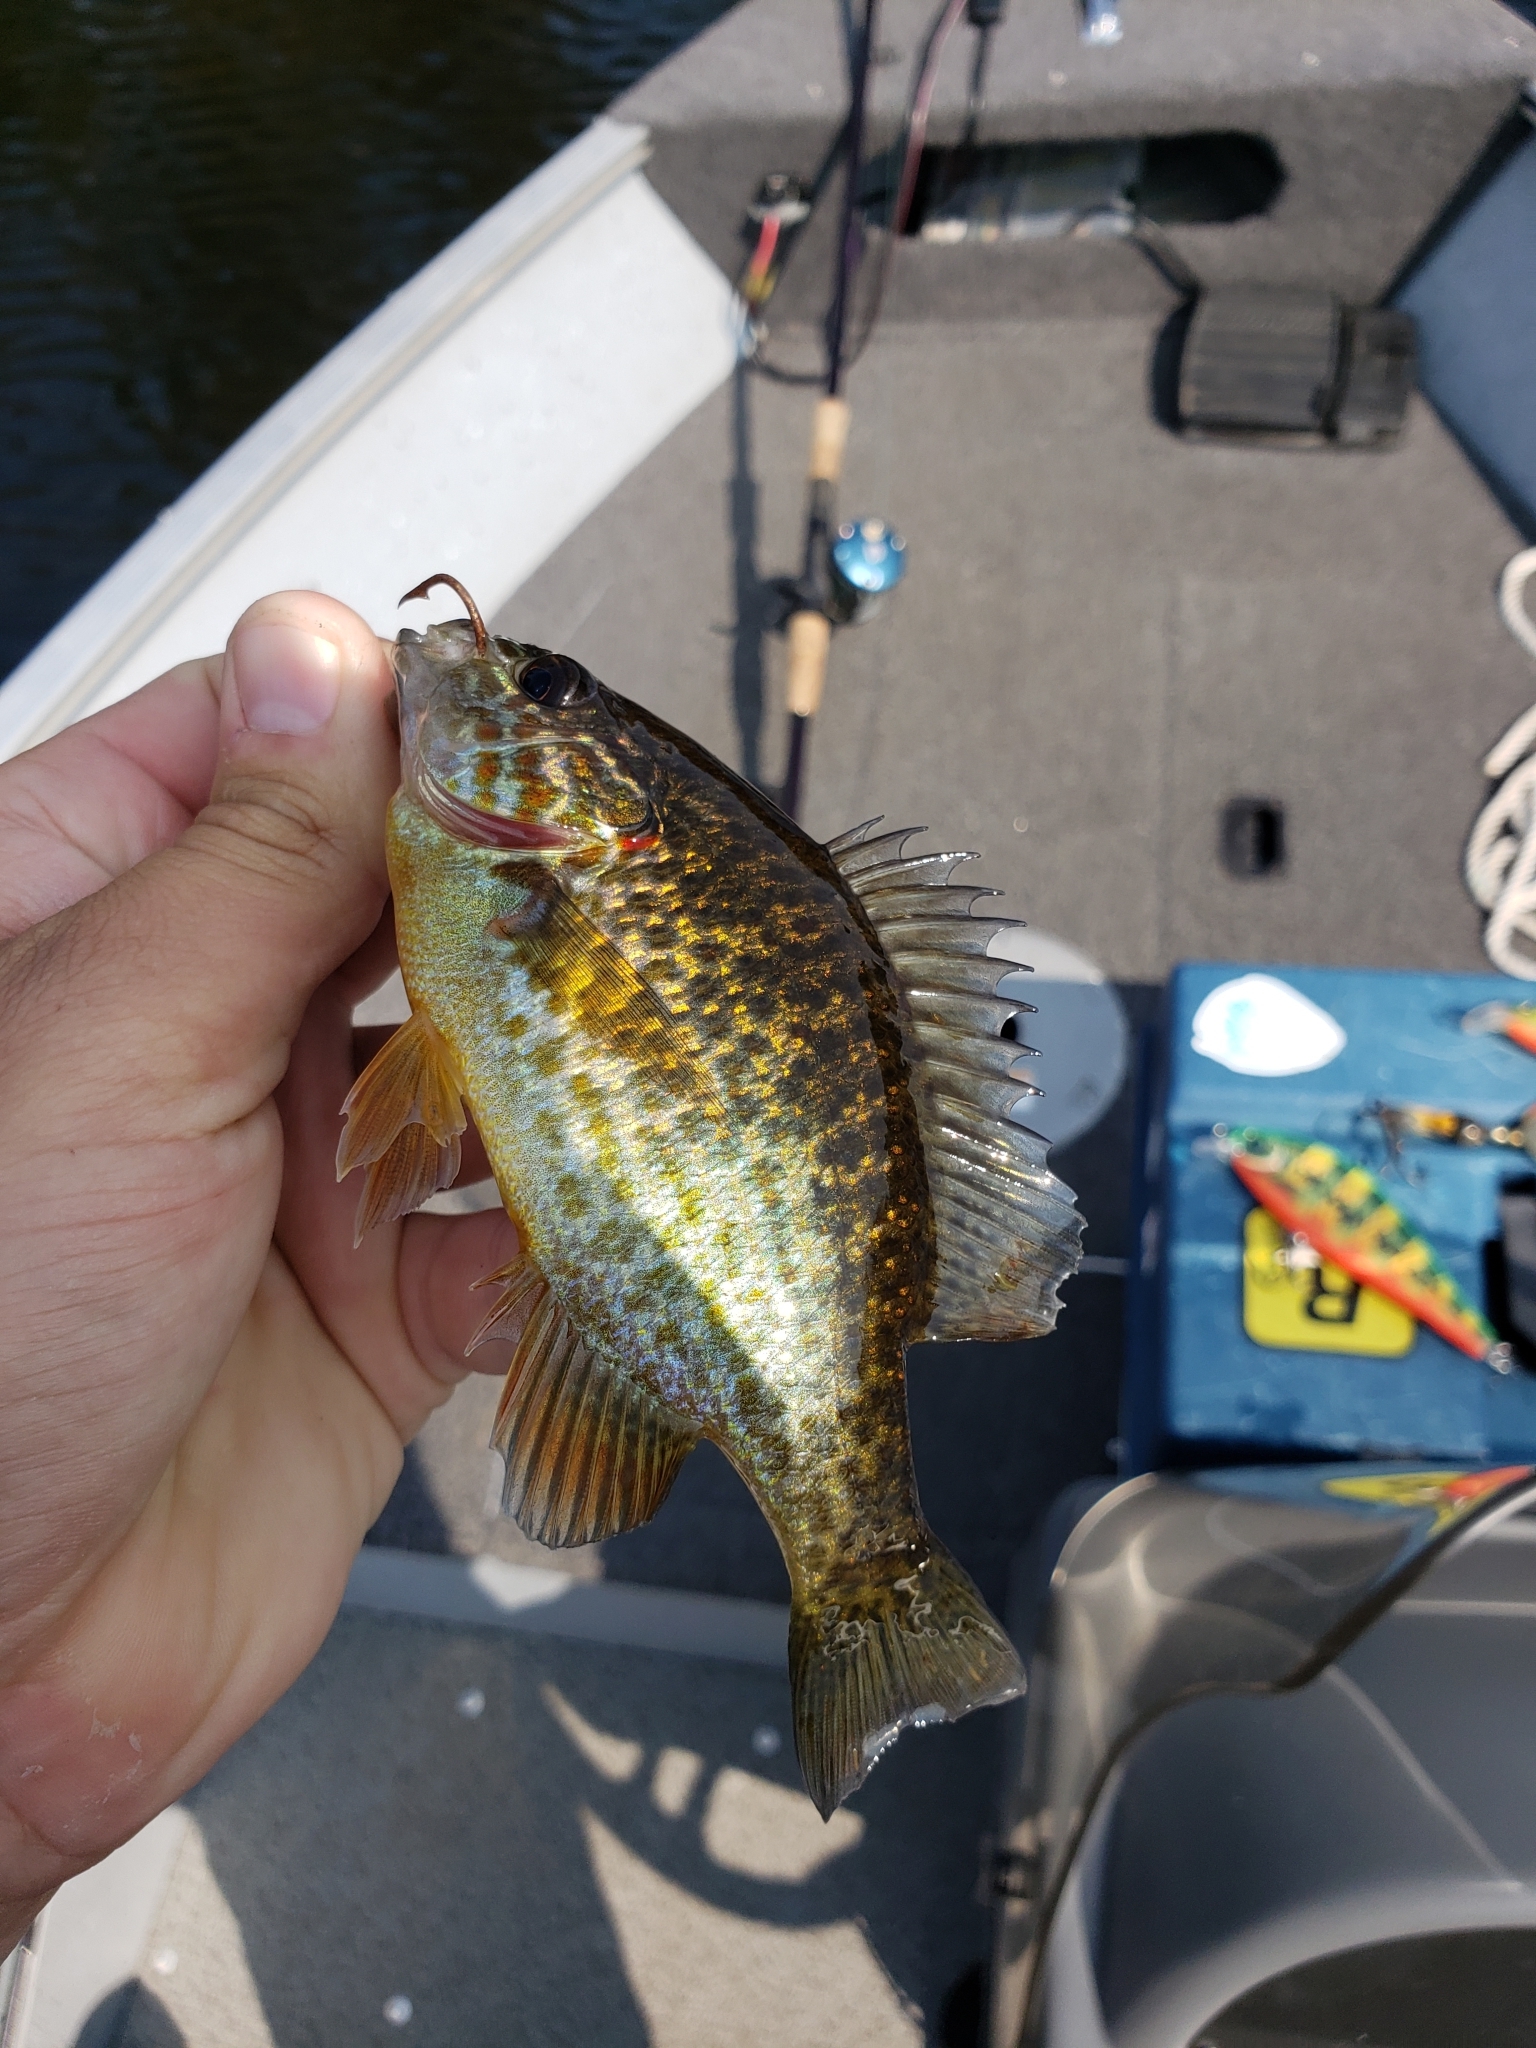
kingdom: Animalia
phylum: Chordata
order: Perciformes
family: Centrarchidae
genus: Lepomis
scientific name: Lepomis gibbosus
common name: Pumpkinseed
